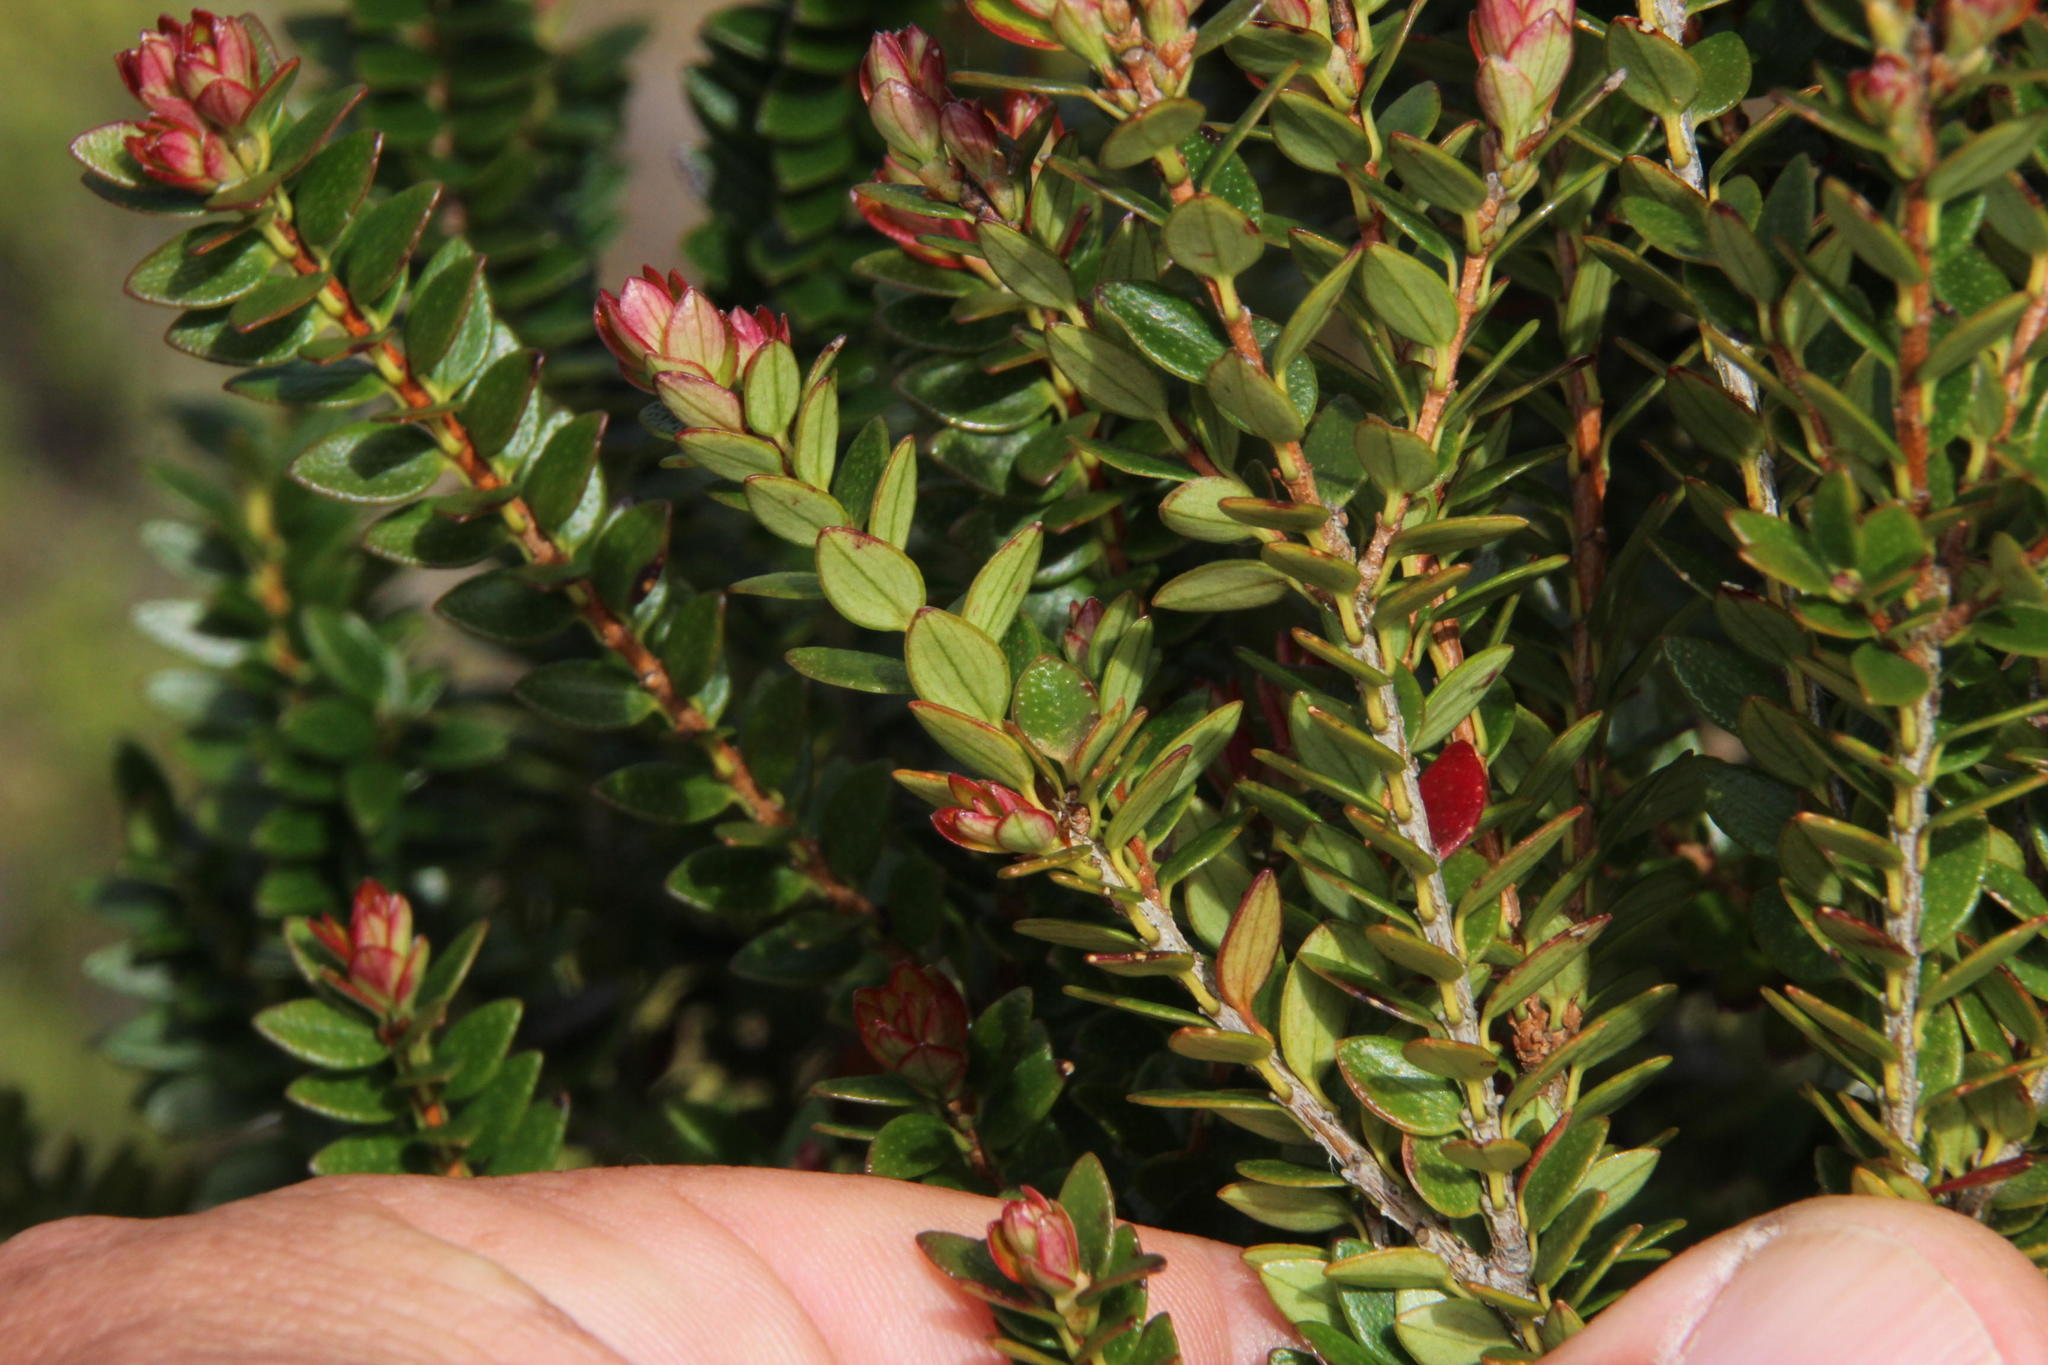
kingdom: Plantae
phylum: Tracheophyta
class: Magnoliopsida
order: Myrtales
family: Myrtaceae
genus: Tepualia
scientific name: Tepualia stipularis
